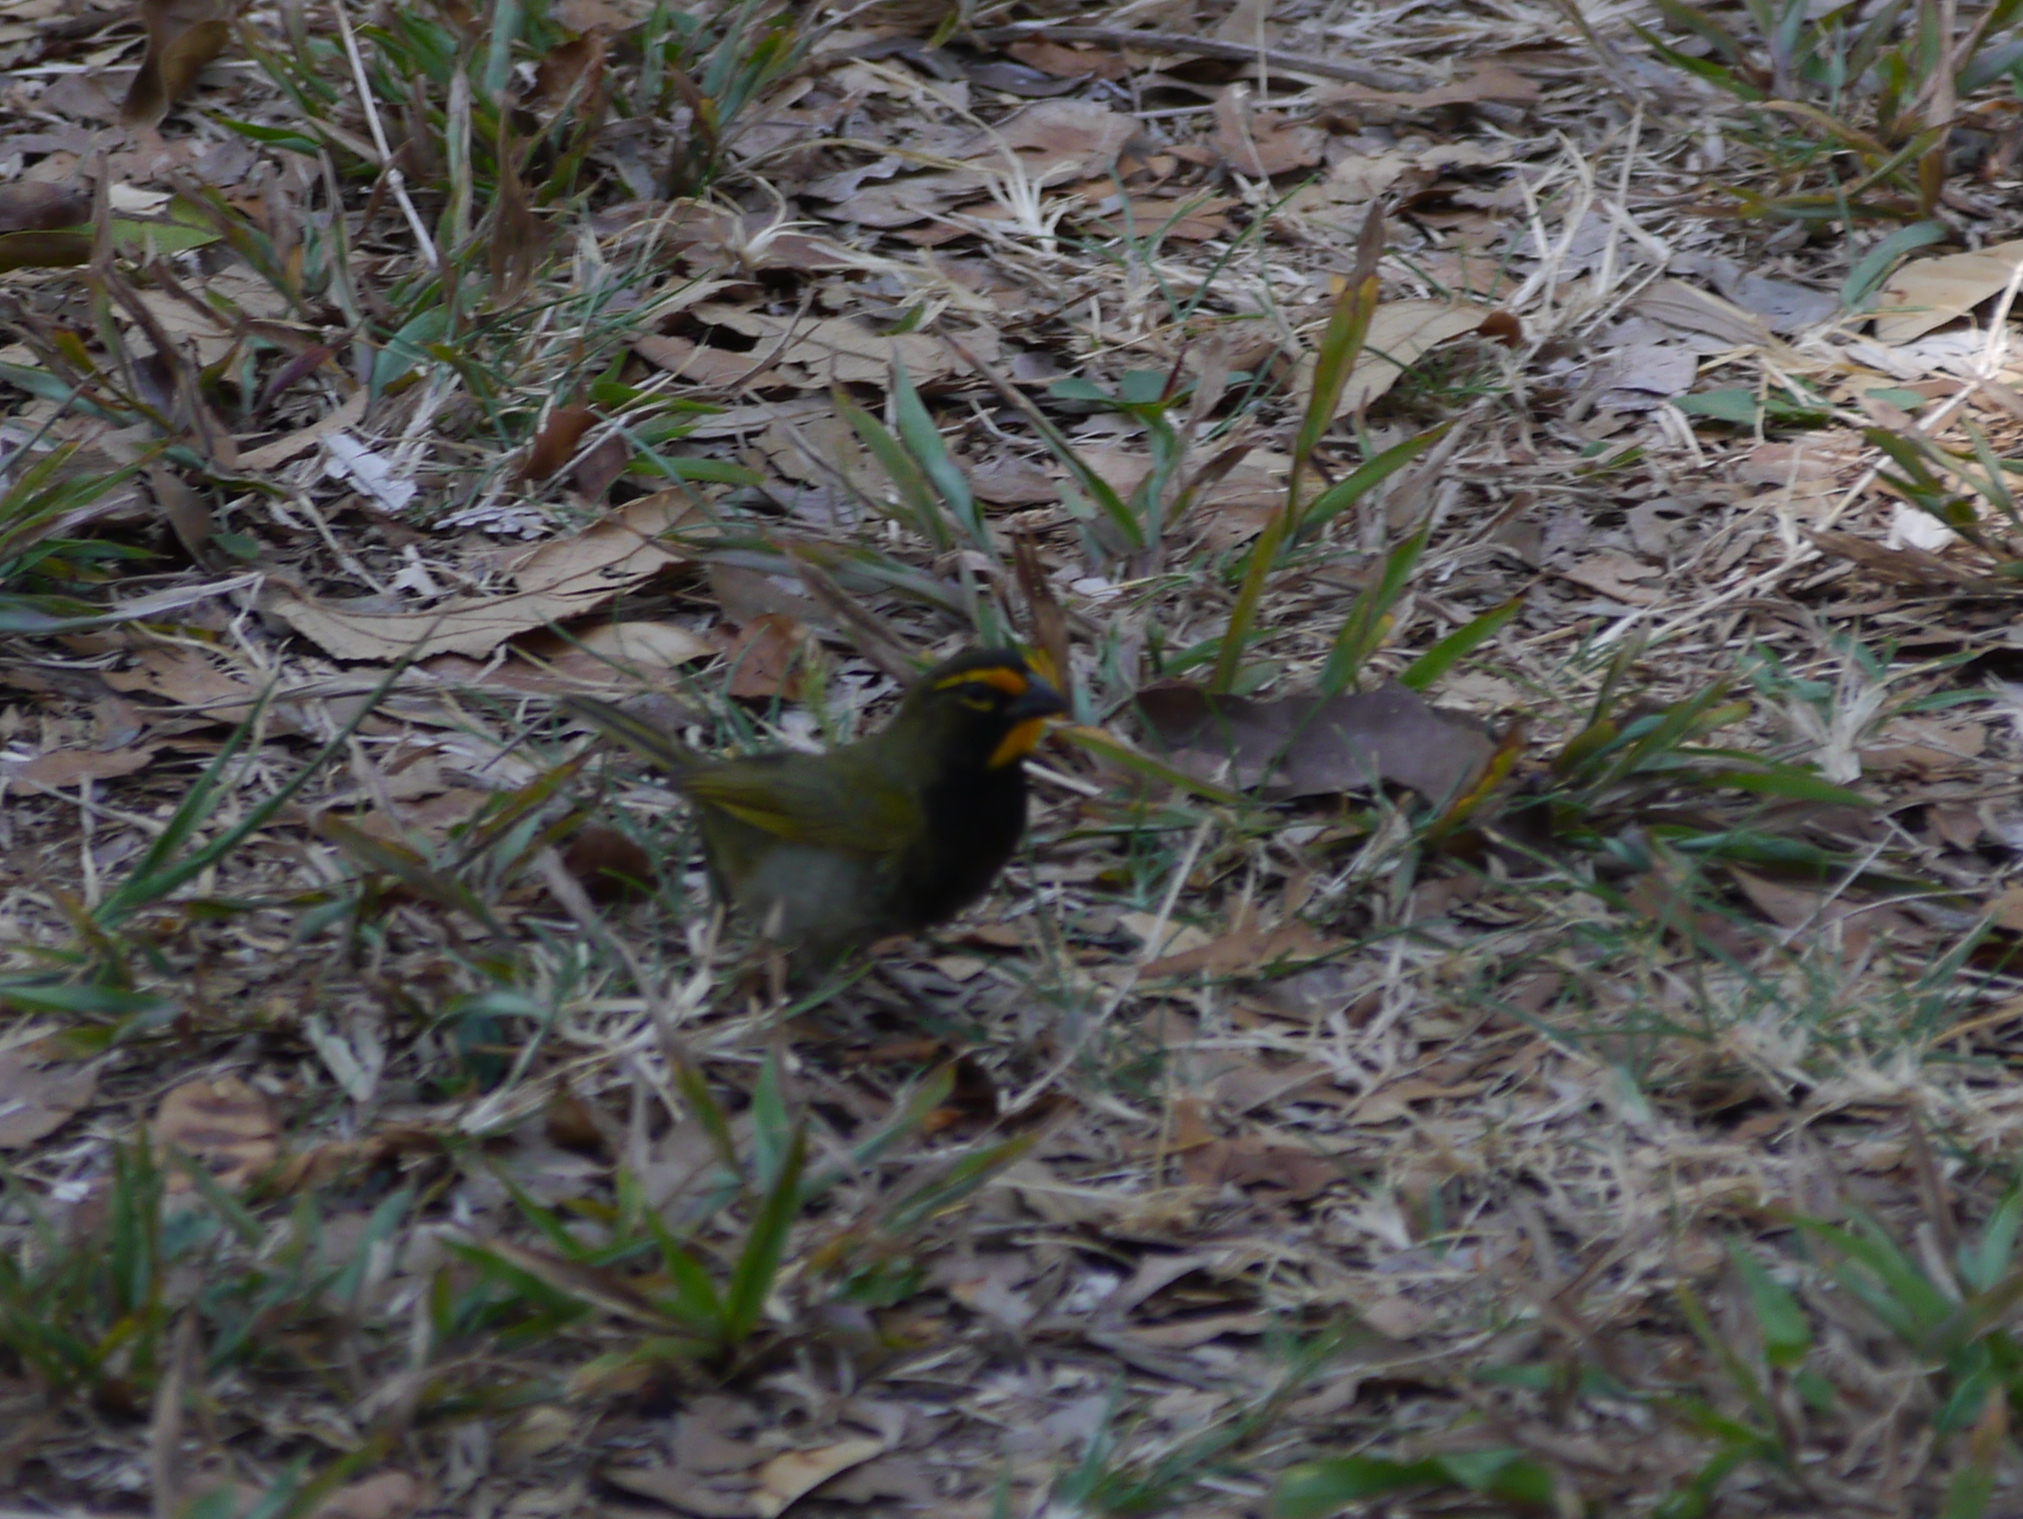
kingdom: Animalia
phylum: Chordata
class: Aves
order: Passeriformes
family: Thraupidae
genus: Tiaris
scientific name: Tiaris olivaceus
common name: Yellow-faced grassquit
